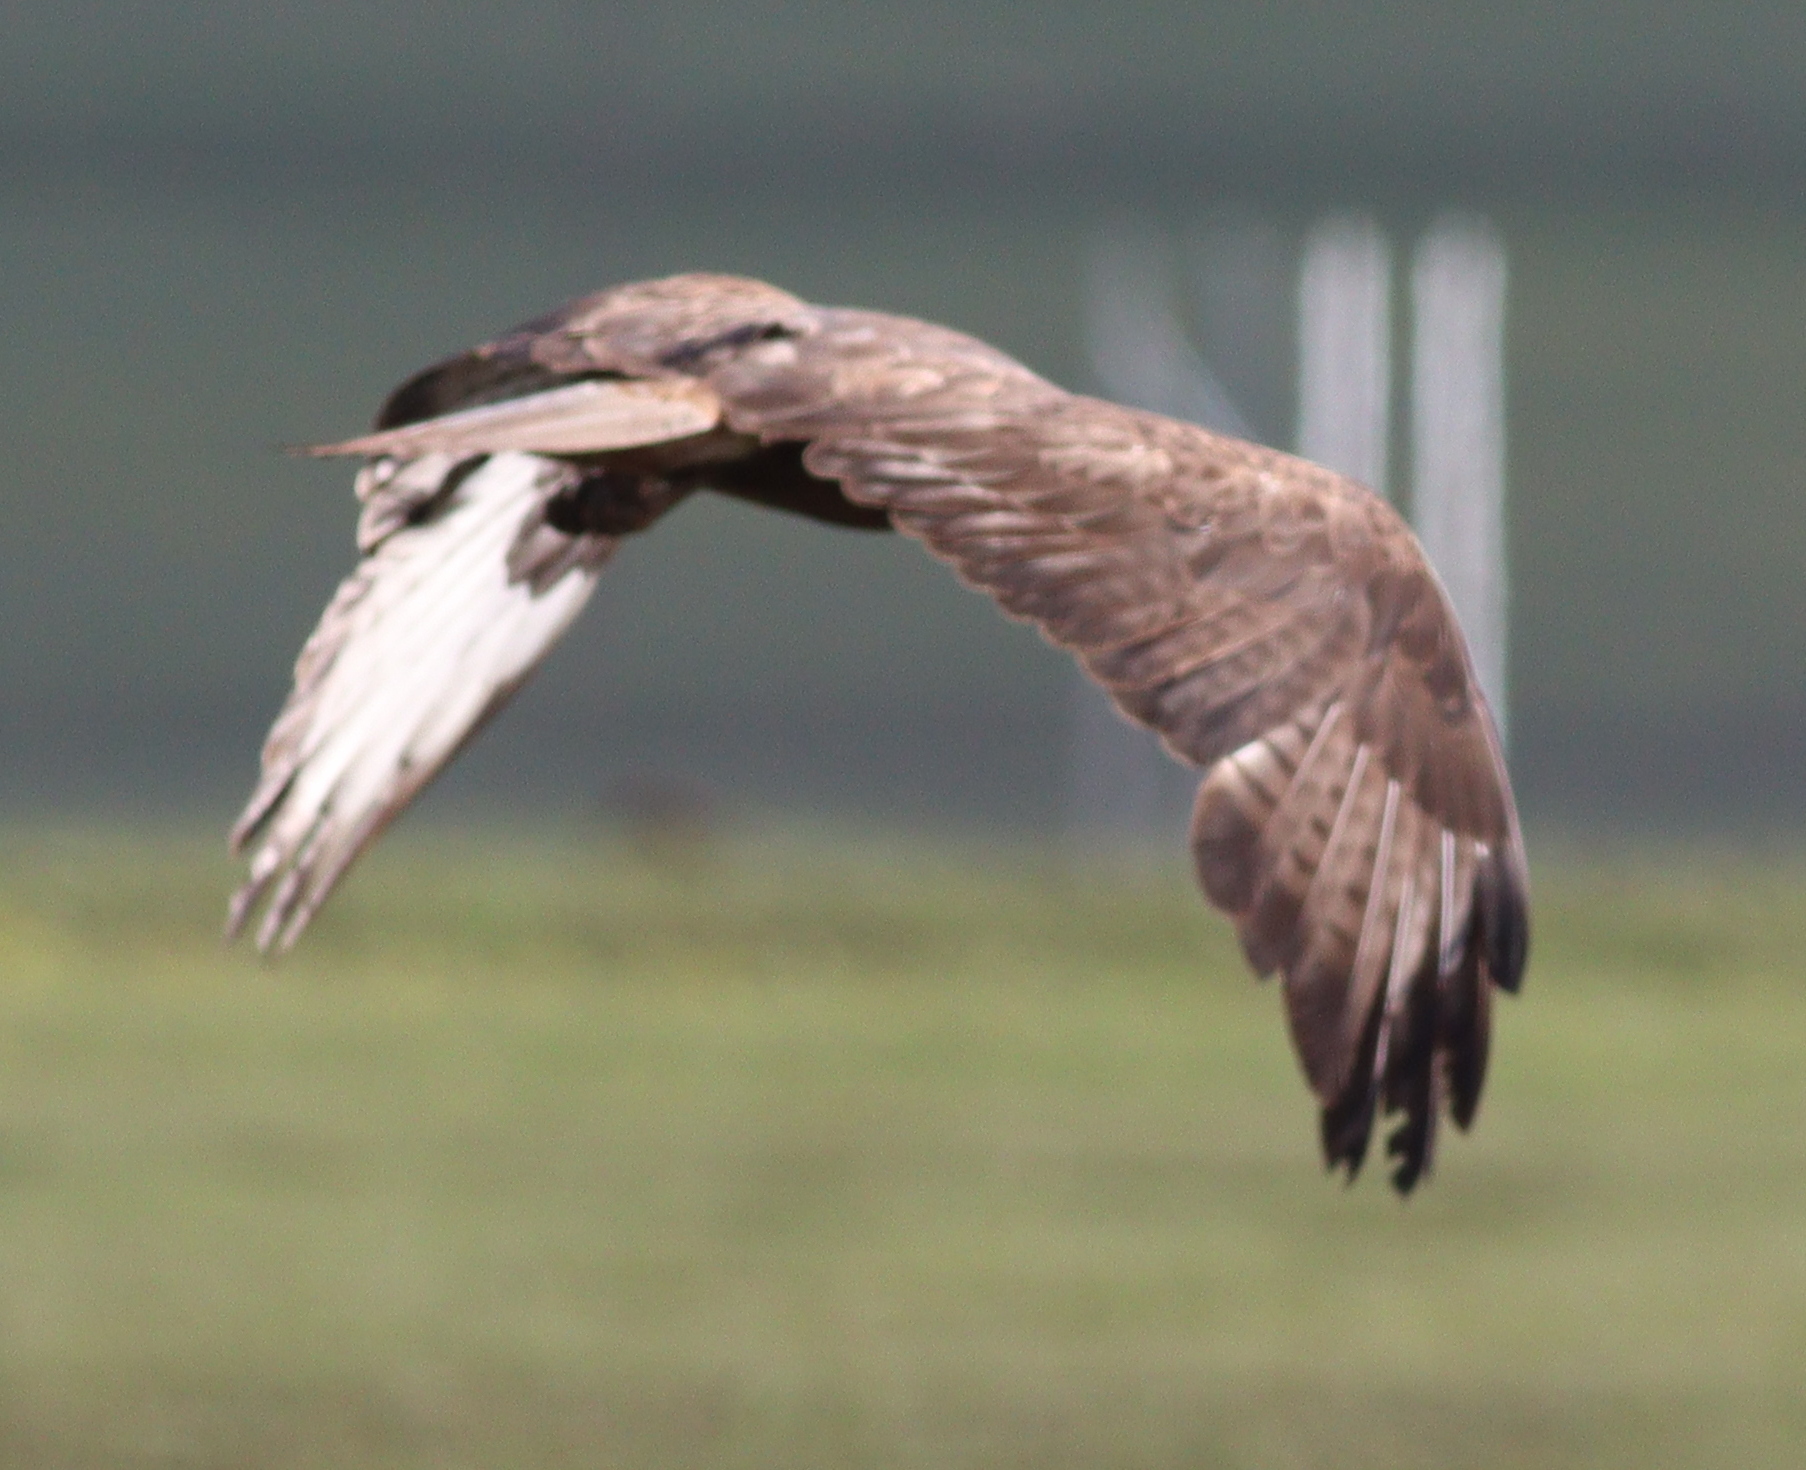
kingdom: Animalia
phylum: Chordata
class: Aves
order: Accipitriformes
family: Accipitridae
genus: Buteo
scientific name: Buteo rufinus
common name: Long-legged buzzard
